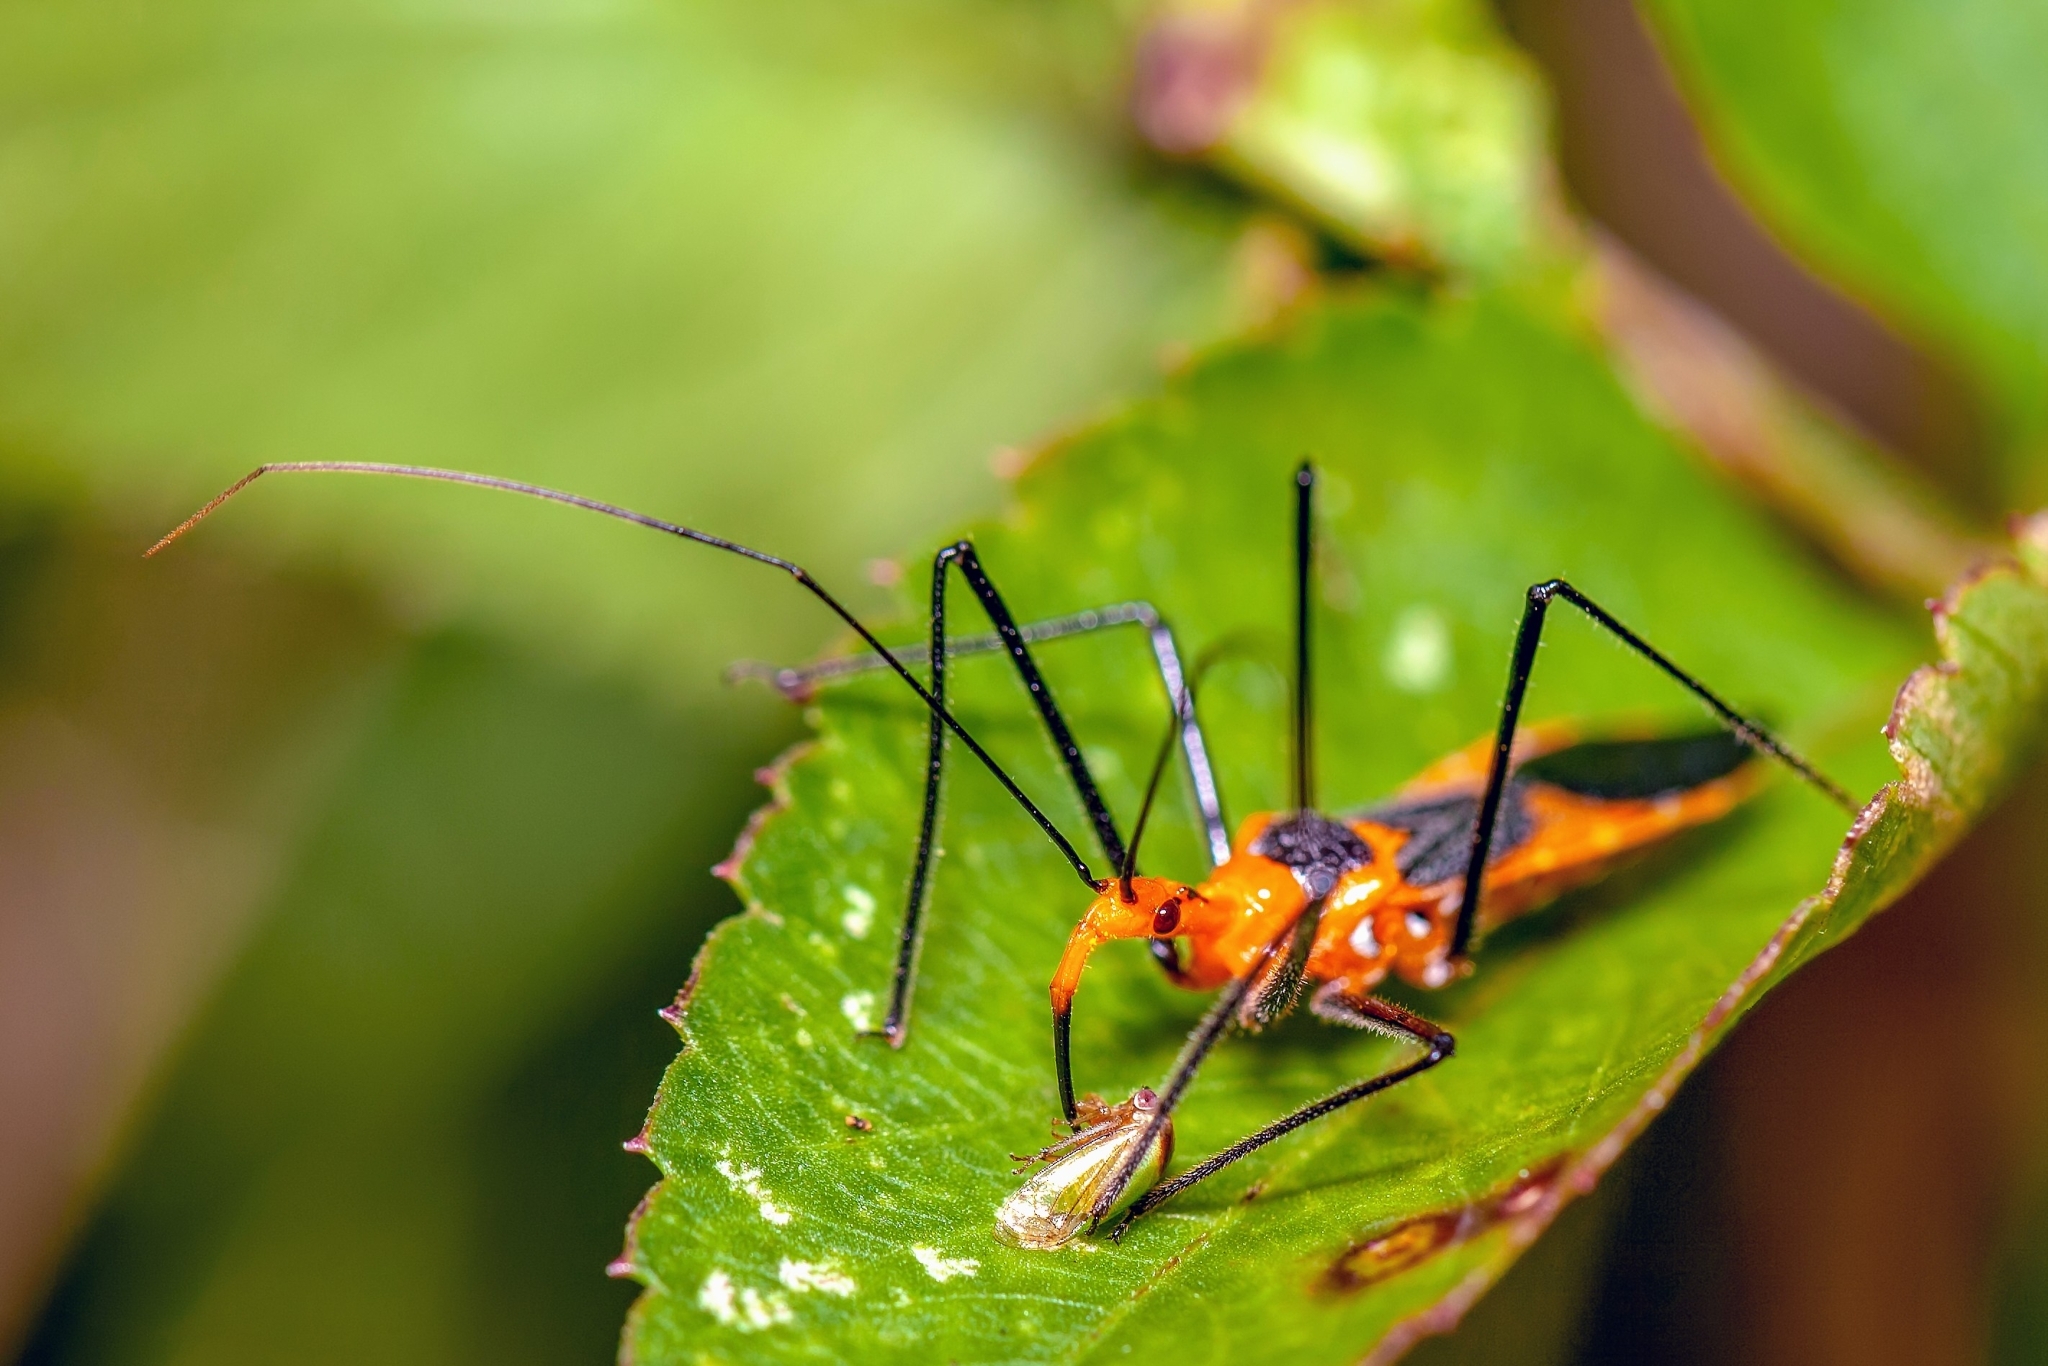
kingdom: Animalia
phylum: Arthropoda
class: Insecta
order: Hemiptera
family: Reduviidae
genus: Zelus
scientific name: Zelus longipes
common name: Milkweed assassin bug
